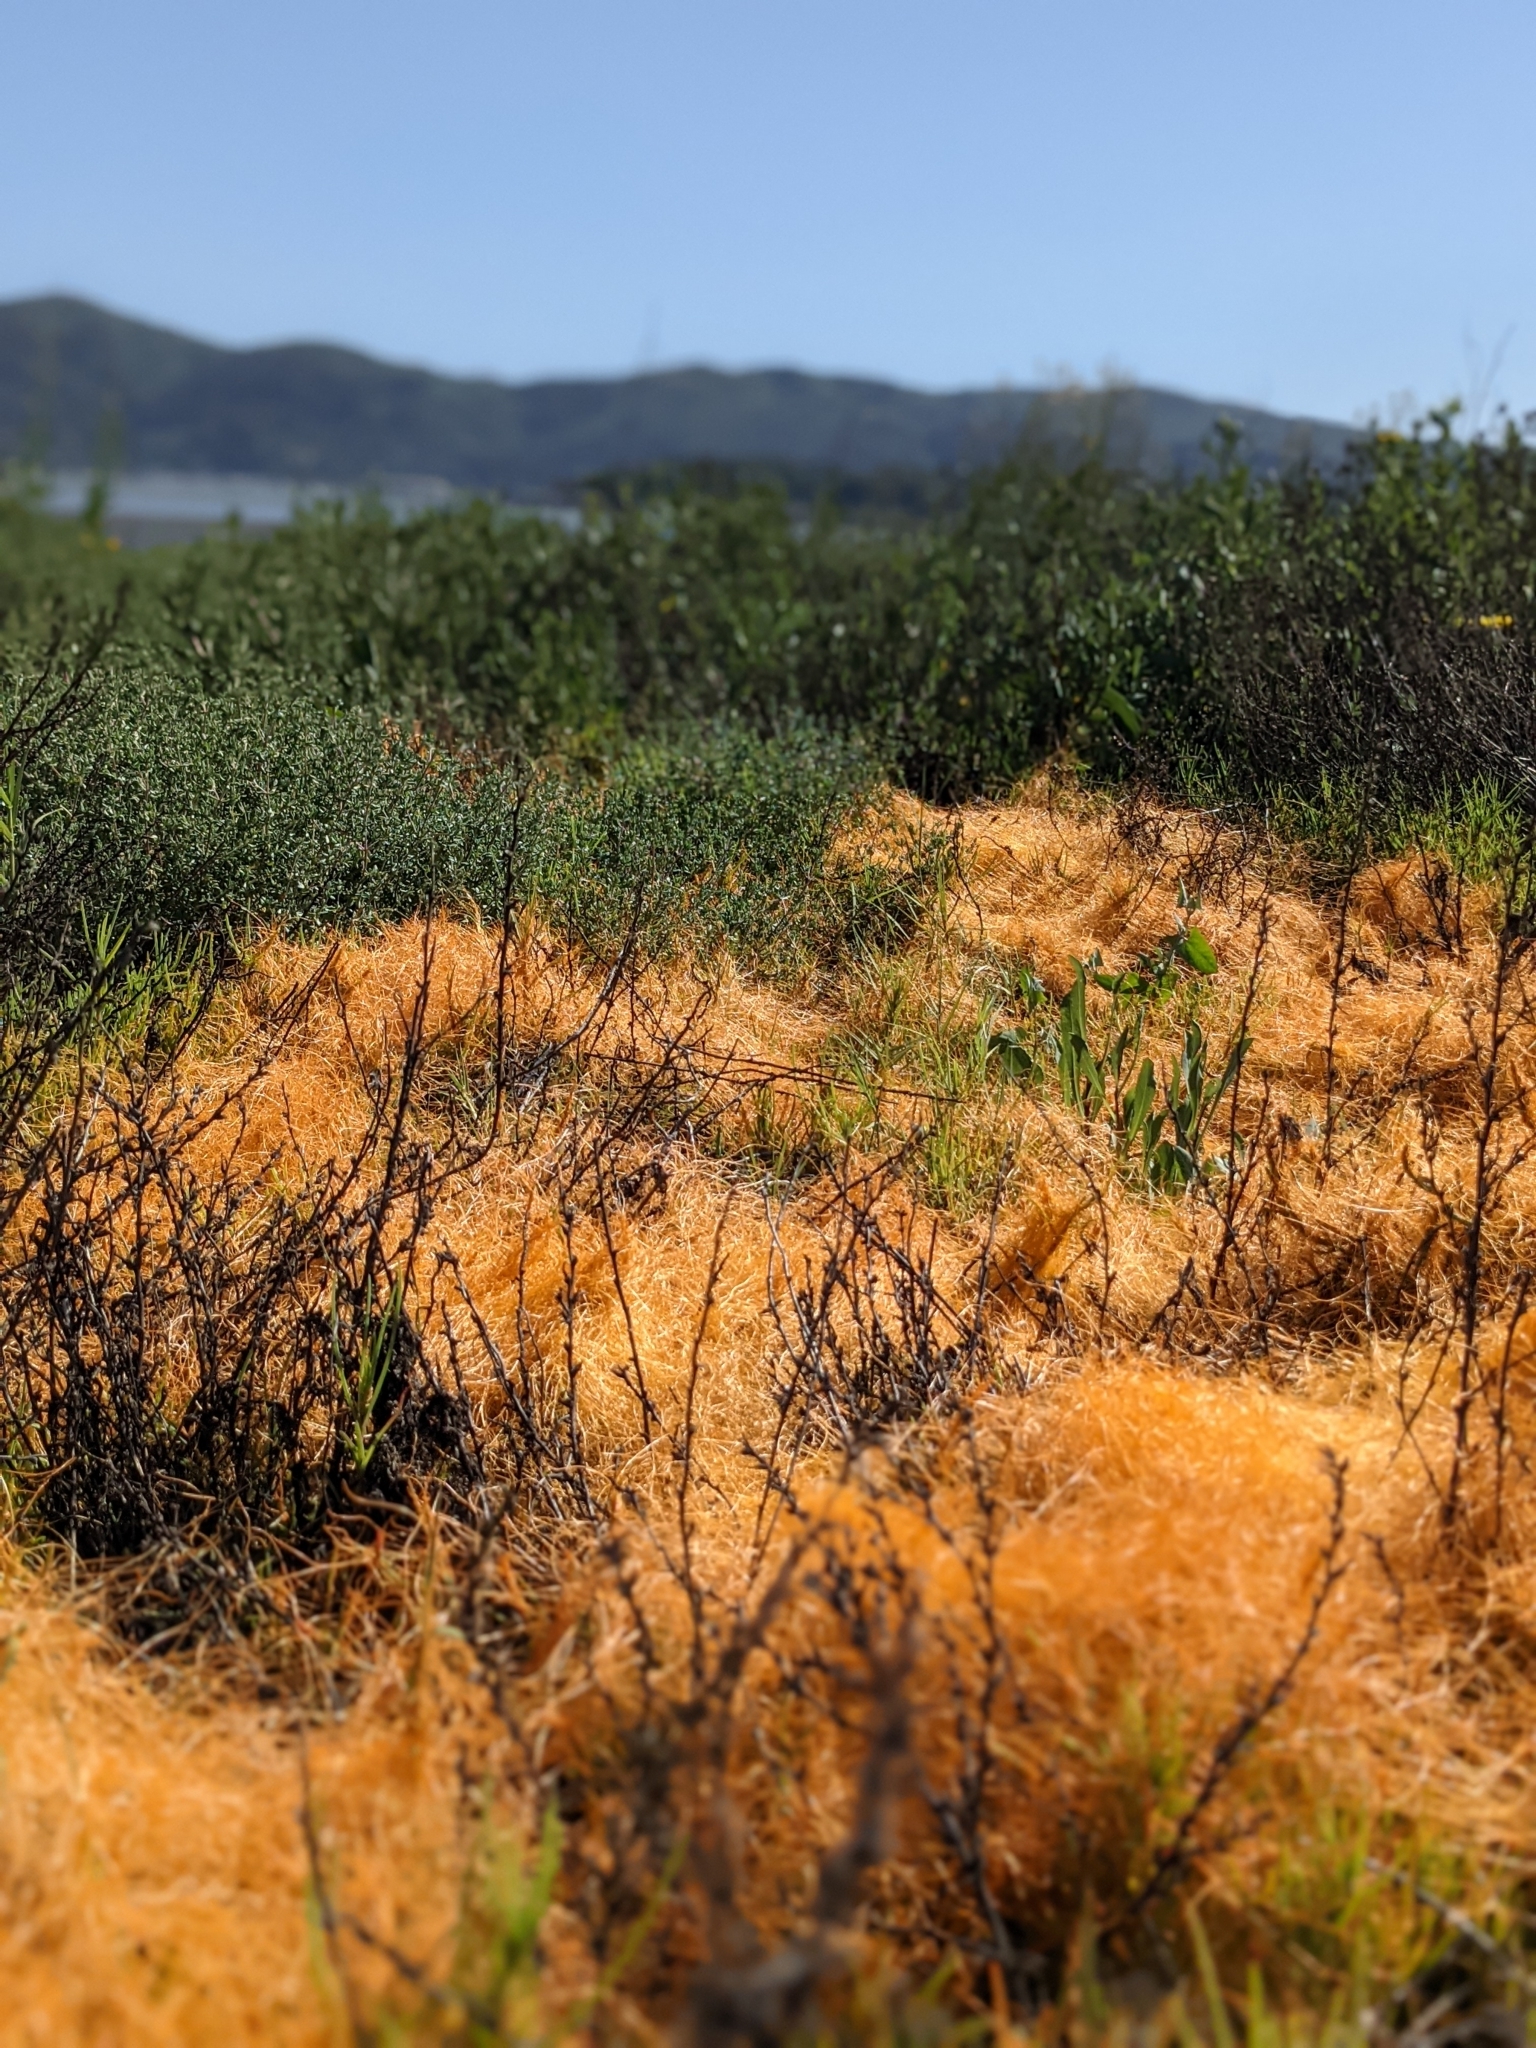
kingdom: Plantae
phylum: Tracheophyta
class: Magnoliopsida
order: Solanales
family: Convolvulaceae
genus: Cuscuta
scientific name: Cuscuta pacifica
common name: Large saltmarsh dodder
